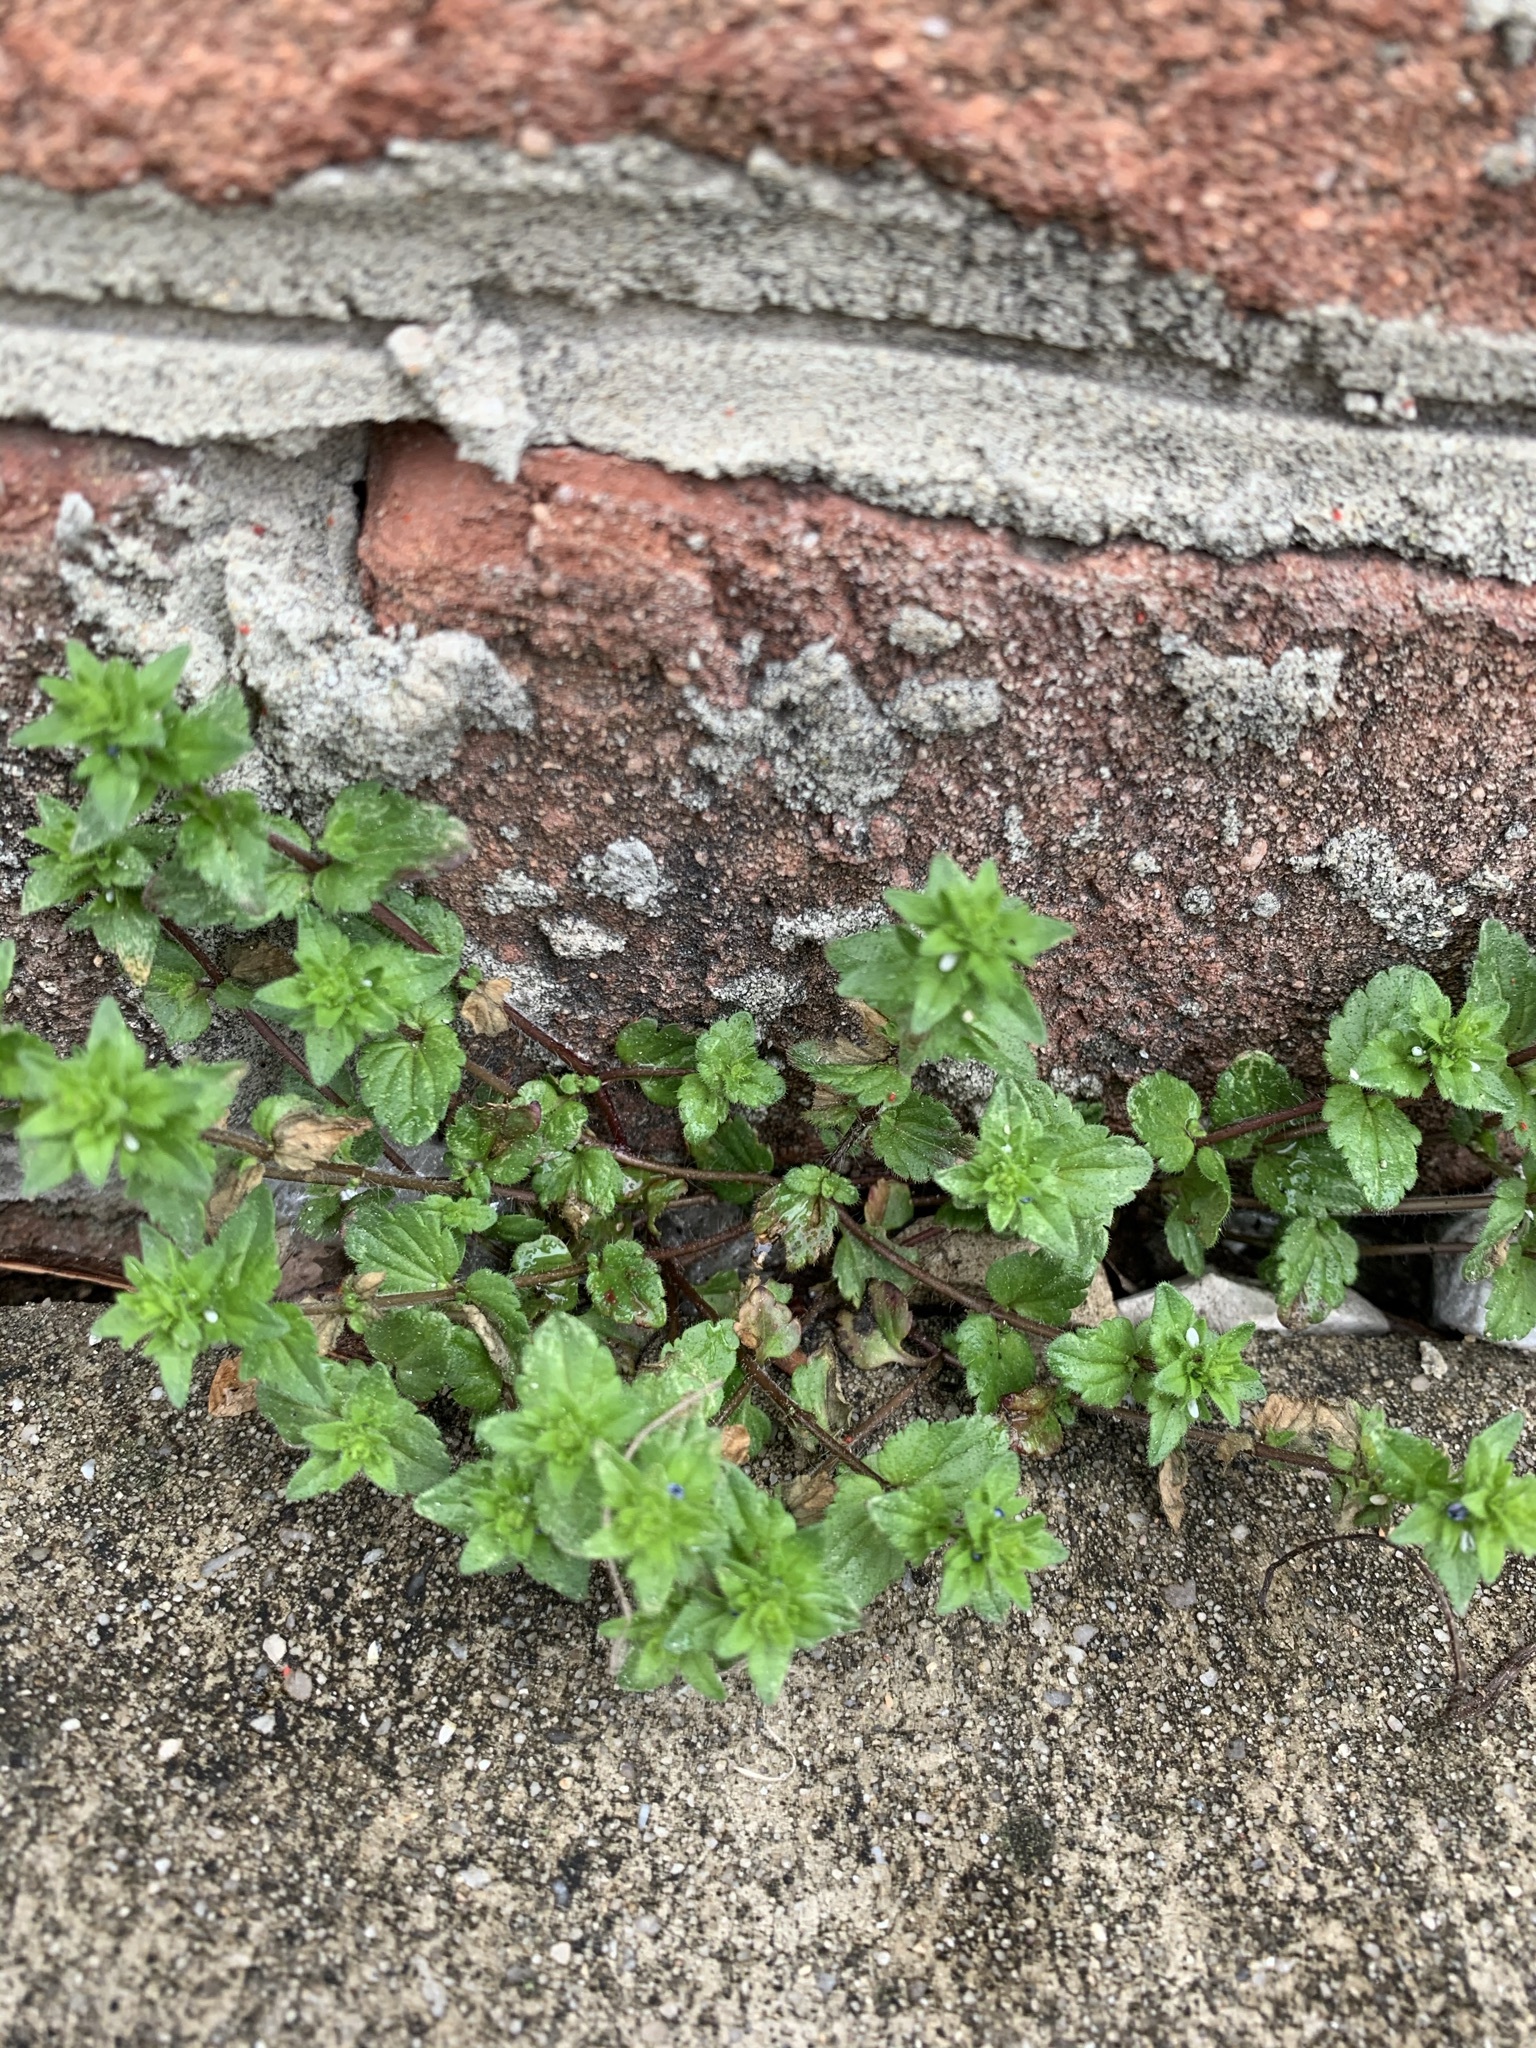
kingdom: Plantae
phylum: Tracheophyta
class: Magnoliopsida
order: Lamiales
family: Plantaginaceae
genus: Veronica
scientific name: Veronica arvensis
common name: Corn speedwell
